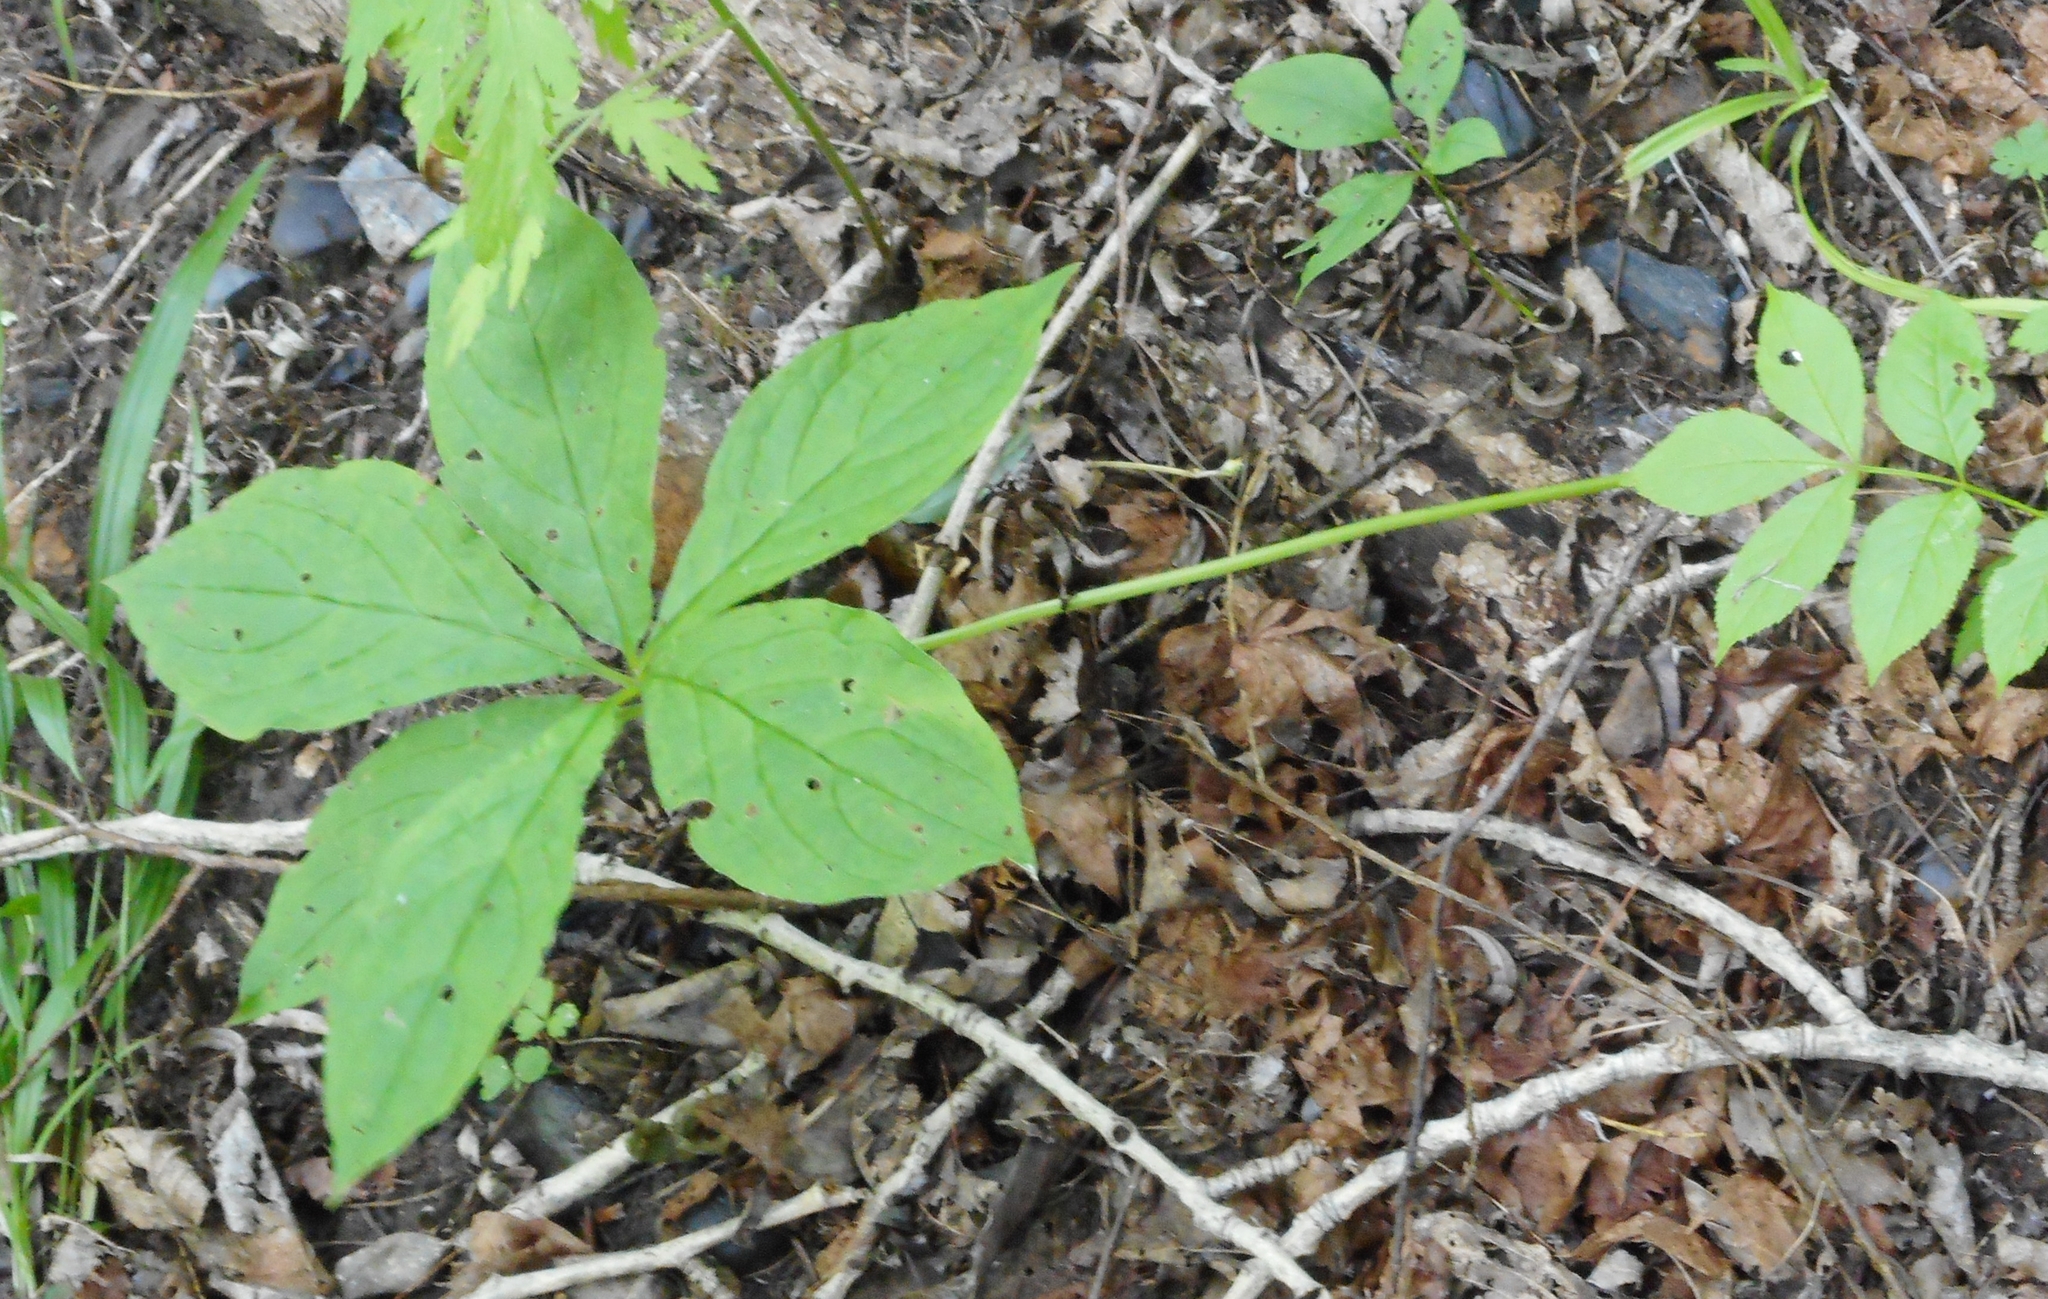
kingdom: Plantae
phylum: Tracheophyta
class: Magnoliopsida
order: Boraginales
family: Boraginaceae
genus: Brachybotrys
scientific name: Brachybotrys paridiformis
